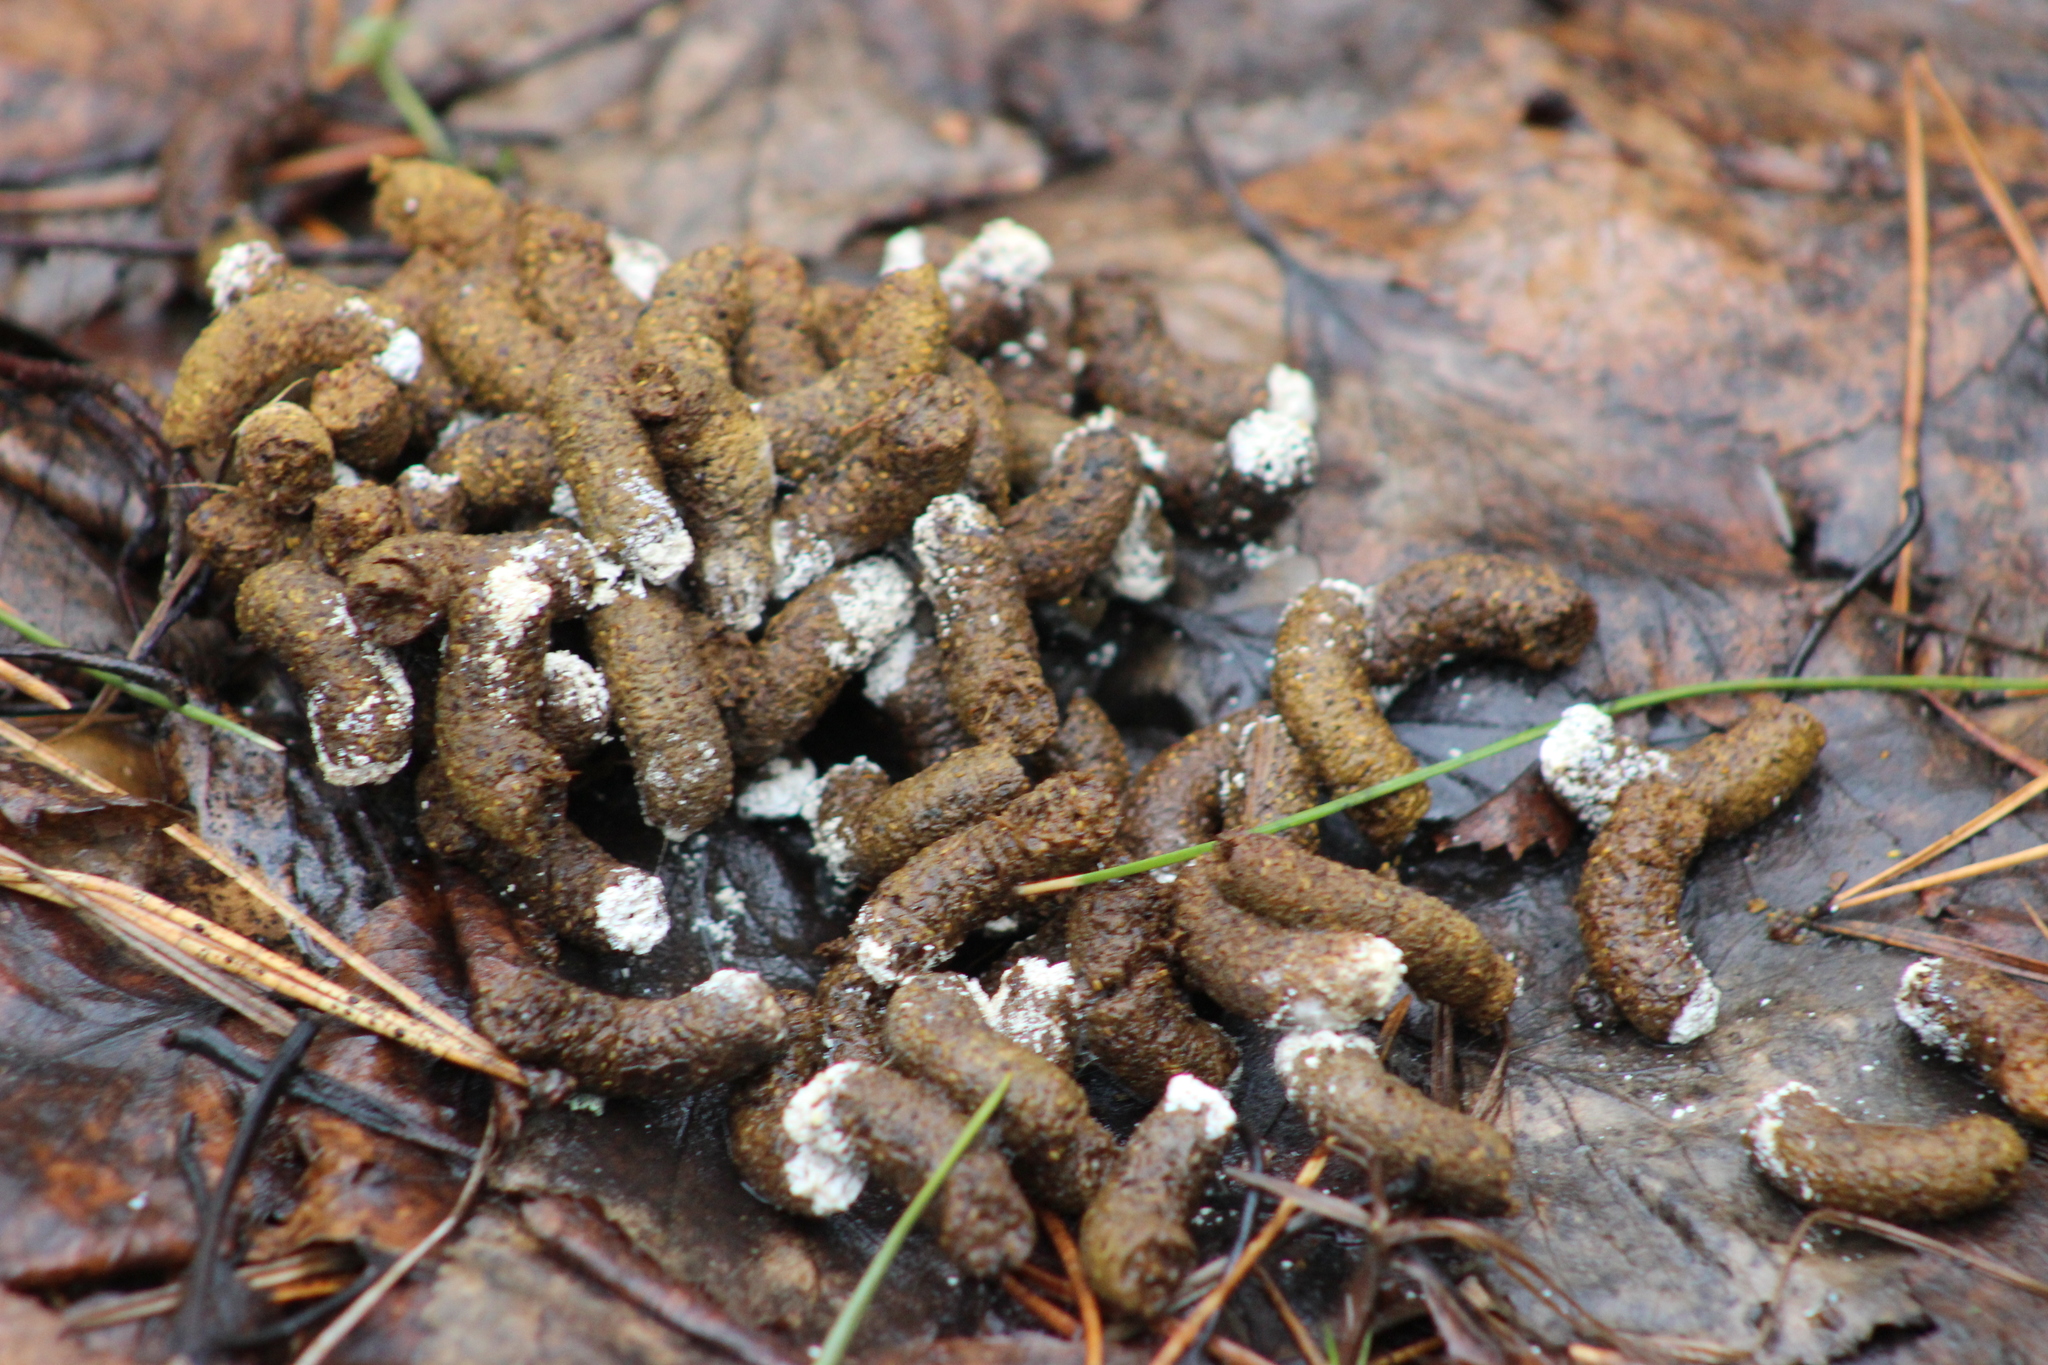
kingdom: Animalia
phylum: Chordata
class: Aves
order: Galliformes
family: Phasianidae
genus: Tetrastes
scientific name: Tetrastes bonasia
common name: Hazel grouse
